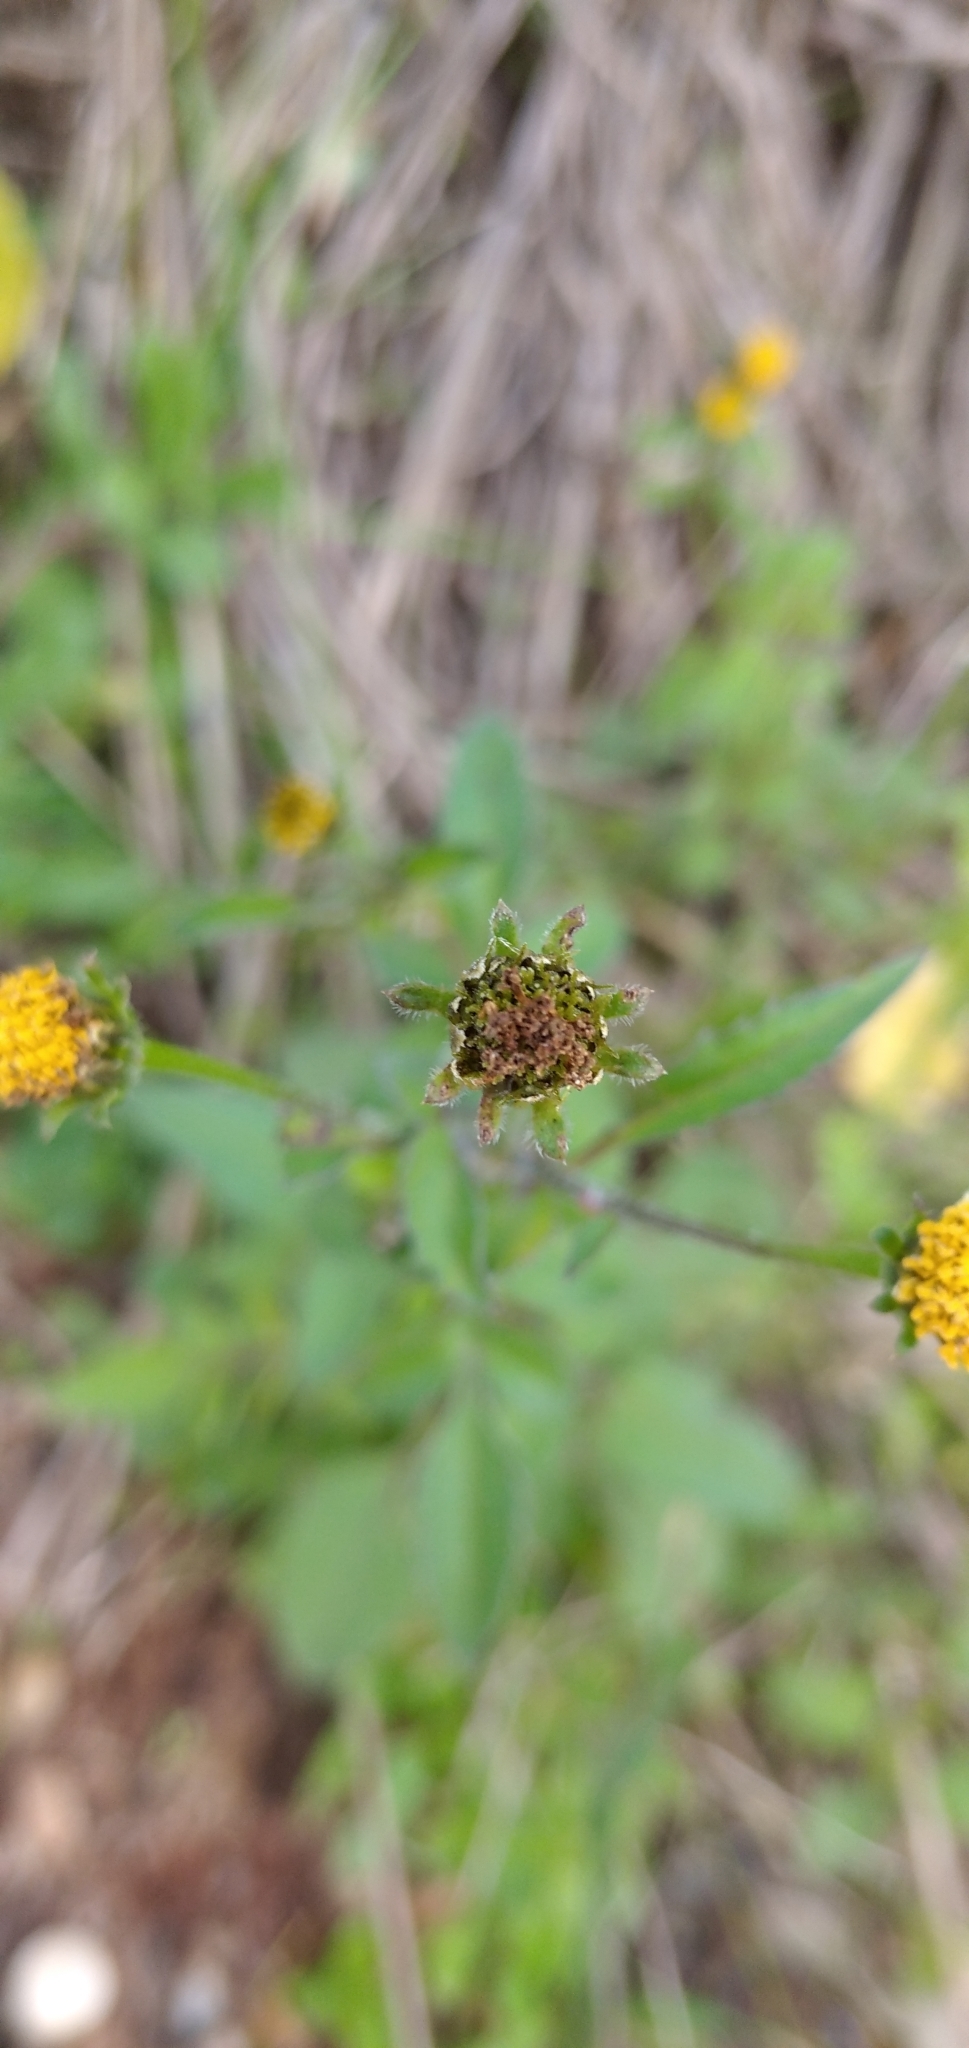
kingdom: Plantae
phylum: Tracheophyta
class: Magnoliopsida
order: Asterales
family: Asteraceae
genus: Bidens
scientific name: Bidens pilosa
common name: Black-jack
